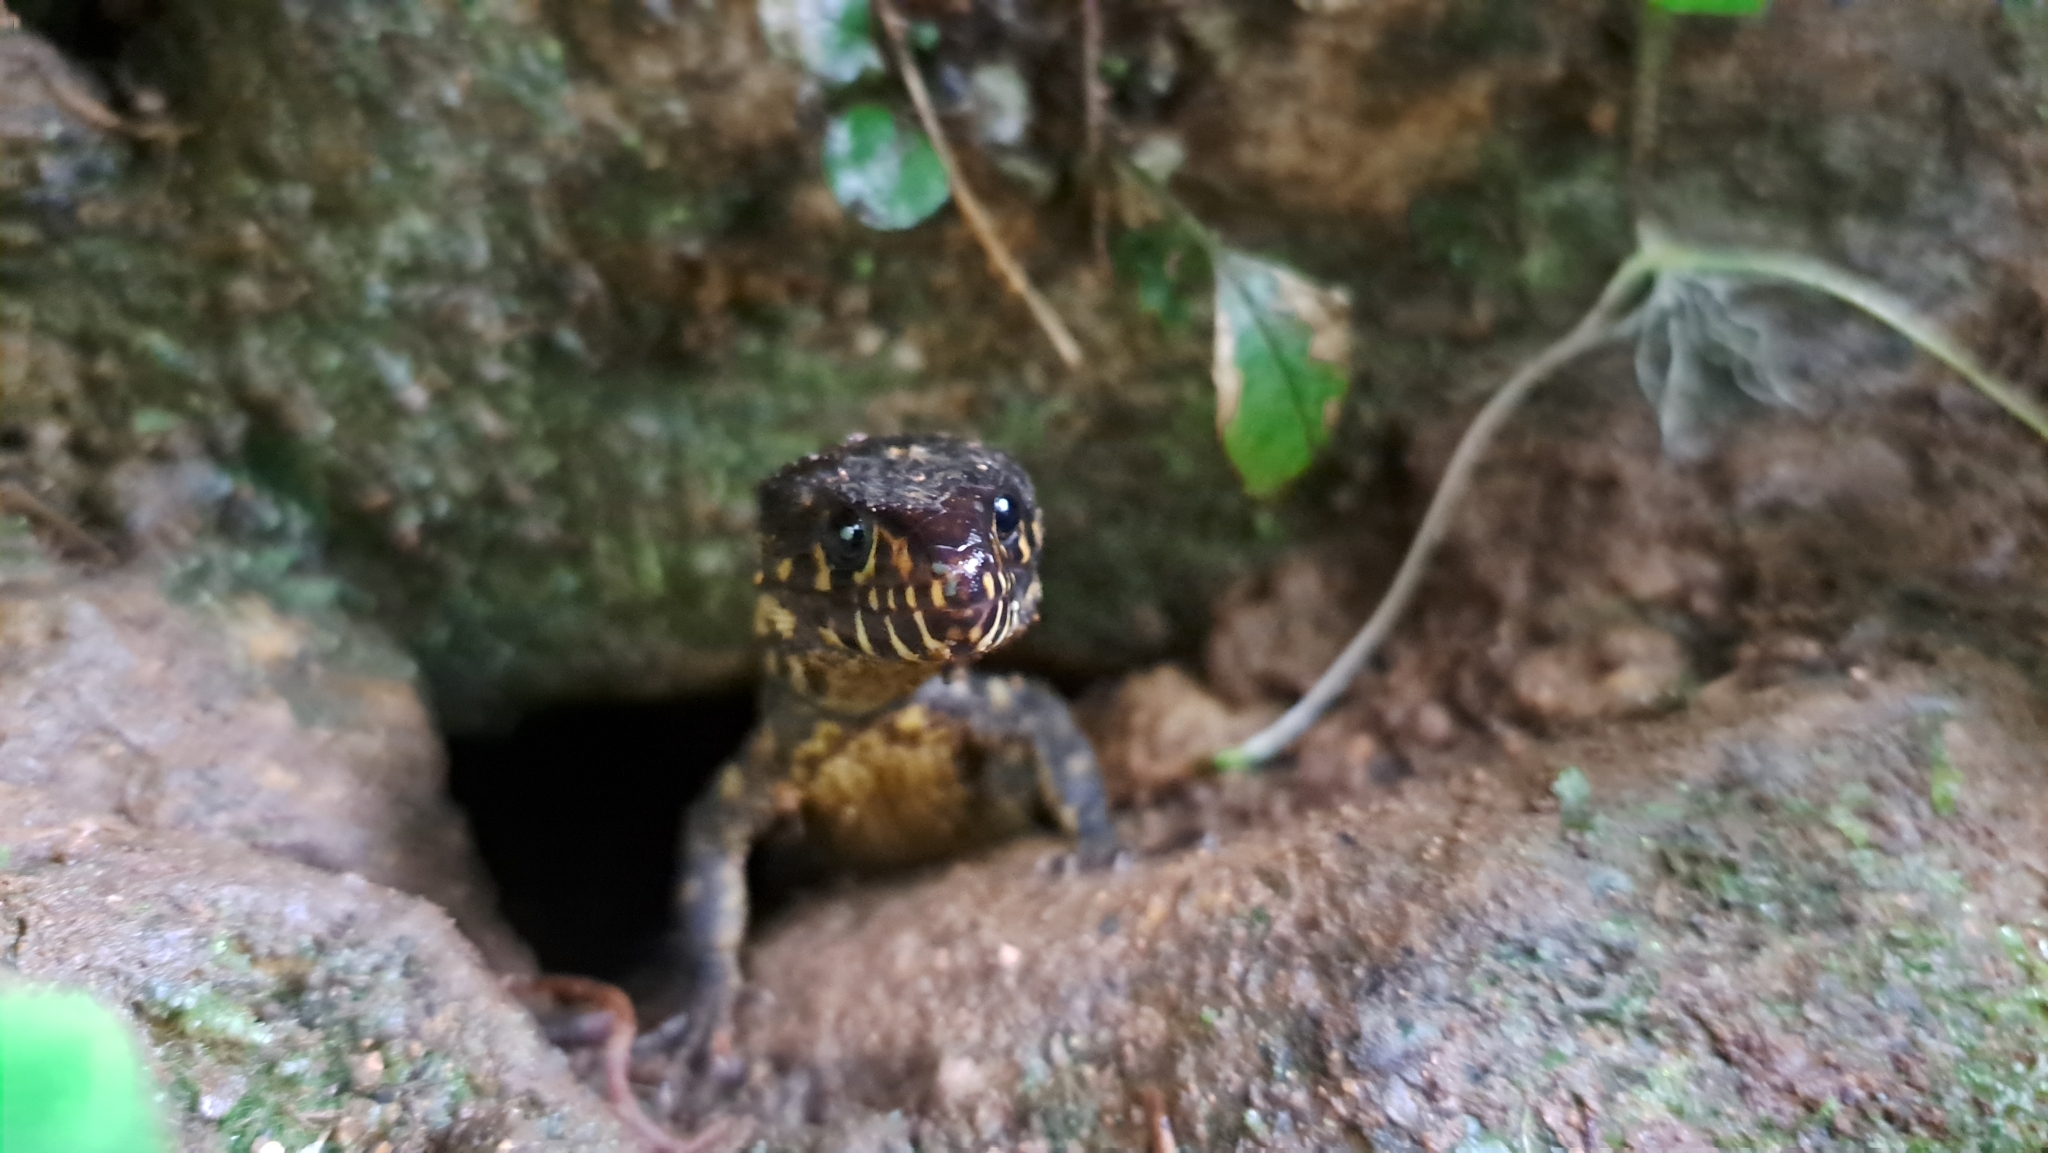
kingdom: Animalia
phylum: Chordata
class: Squamata
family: Xantusiidae
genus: Lepidophyma
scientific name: Lepidophyma flavimaculatum
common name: Yellow-spotted night lizard
